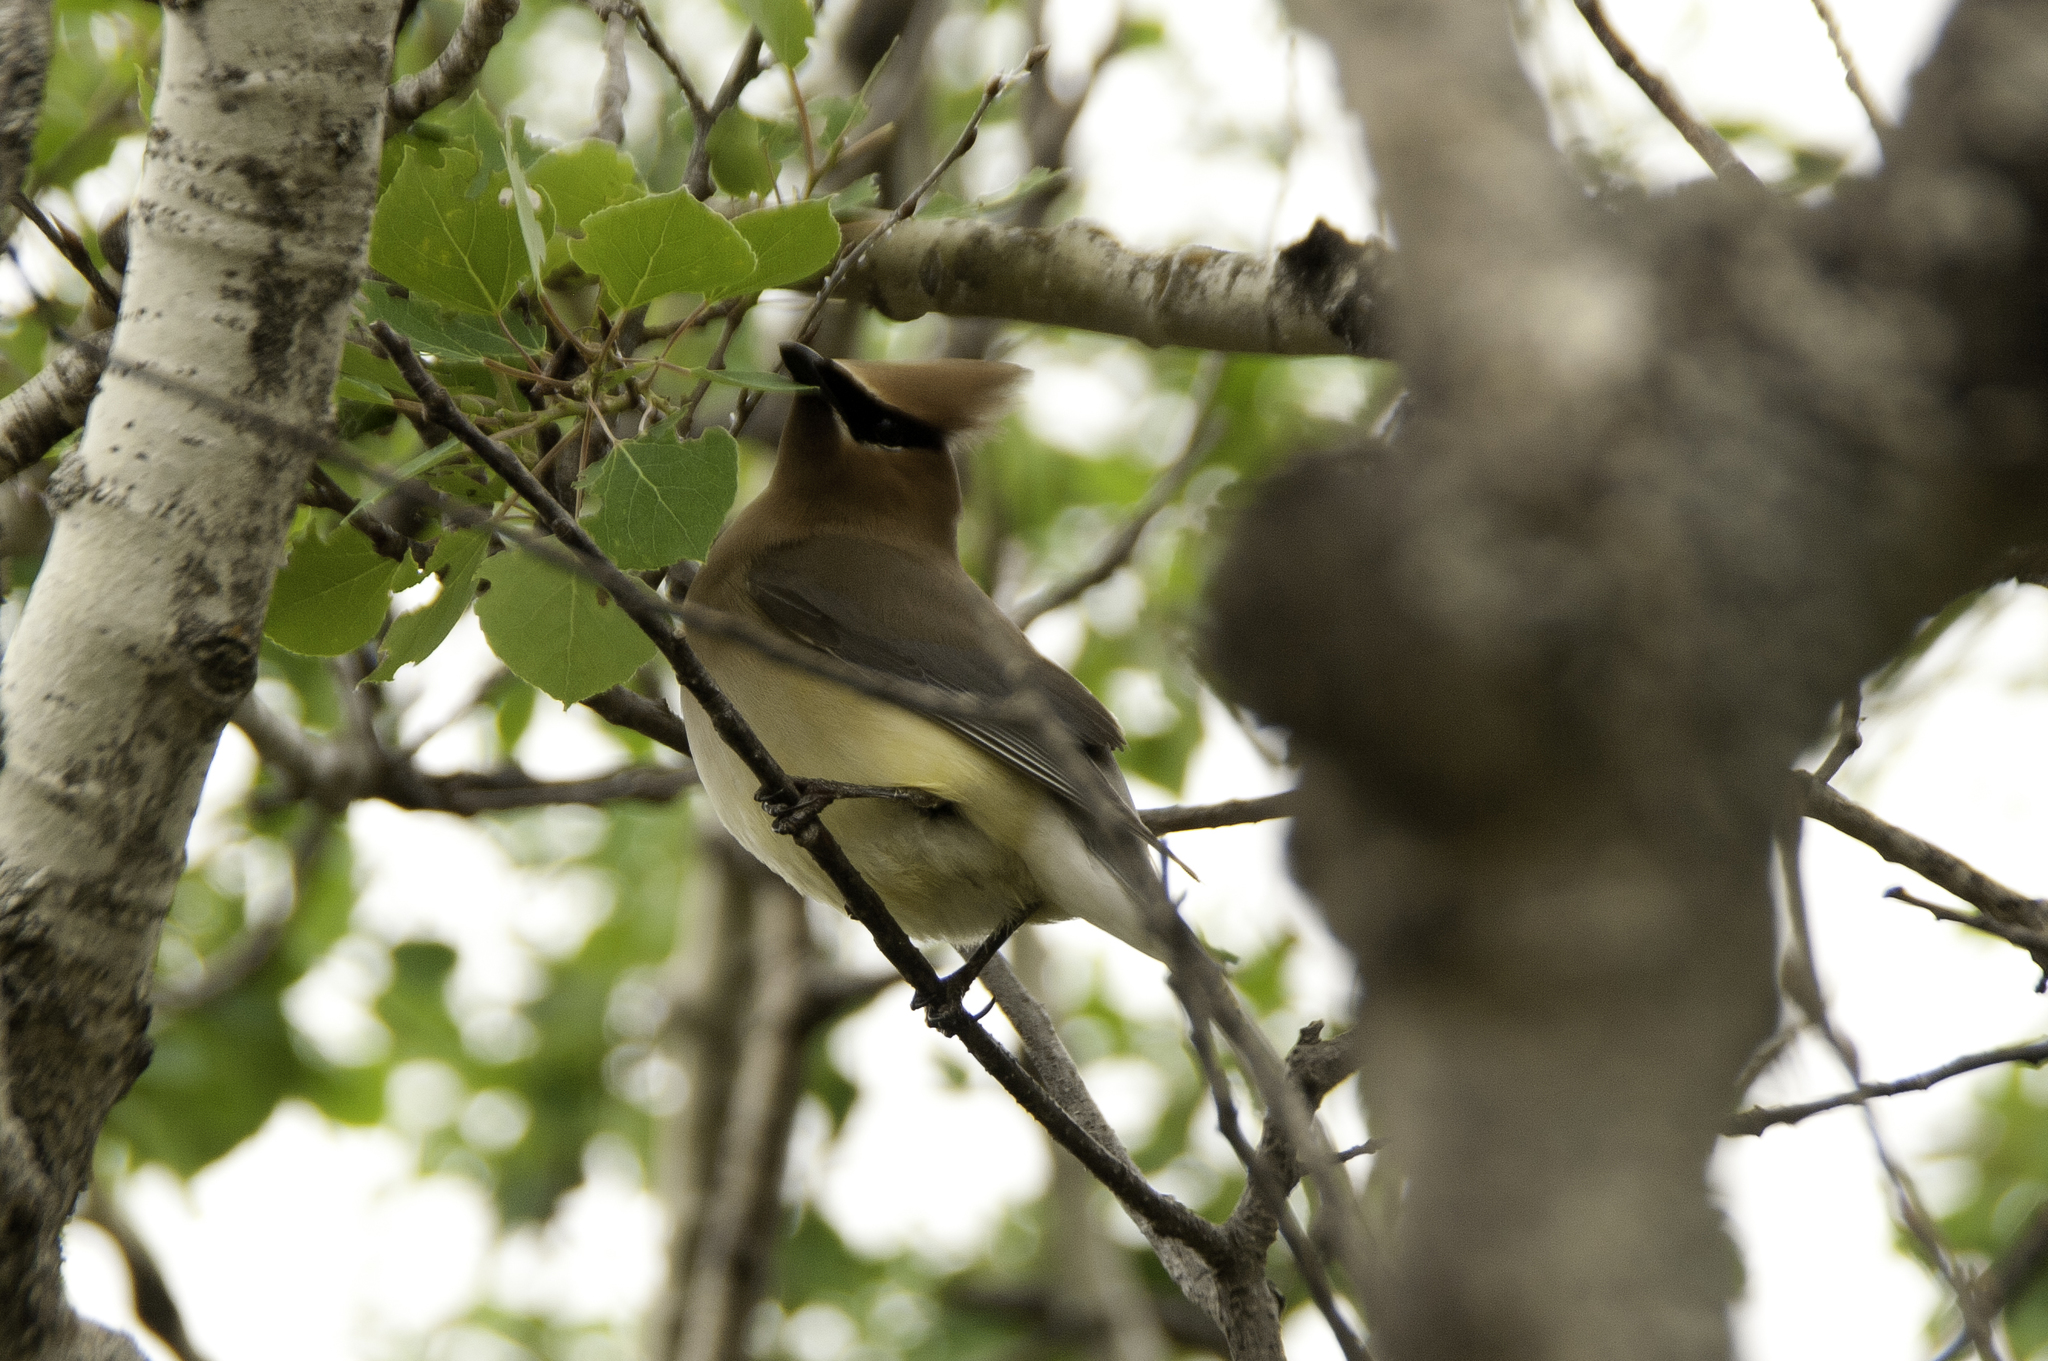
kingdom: Animalia
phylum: Chordata
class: Aves
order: Passeriformes
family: Bombycillidae
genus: Bombycilla
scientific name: Bombycilla cedrorum
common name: Cedar waxwing
